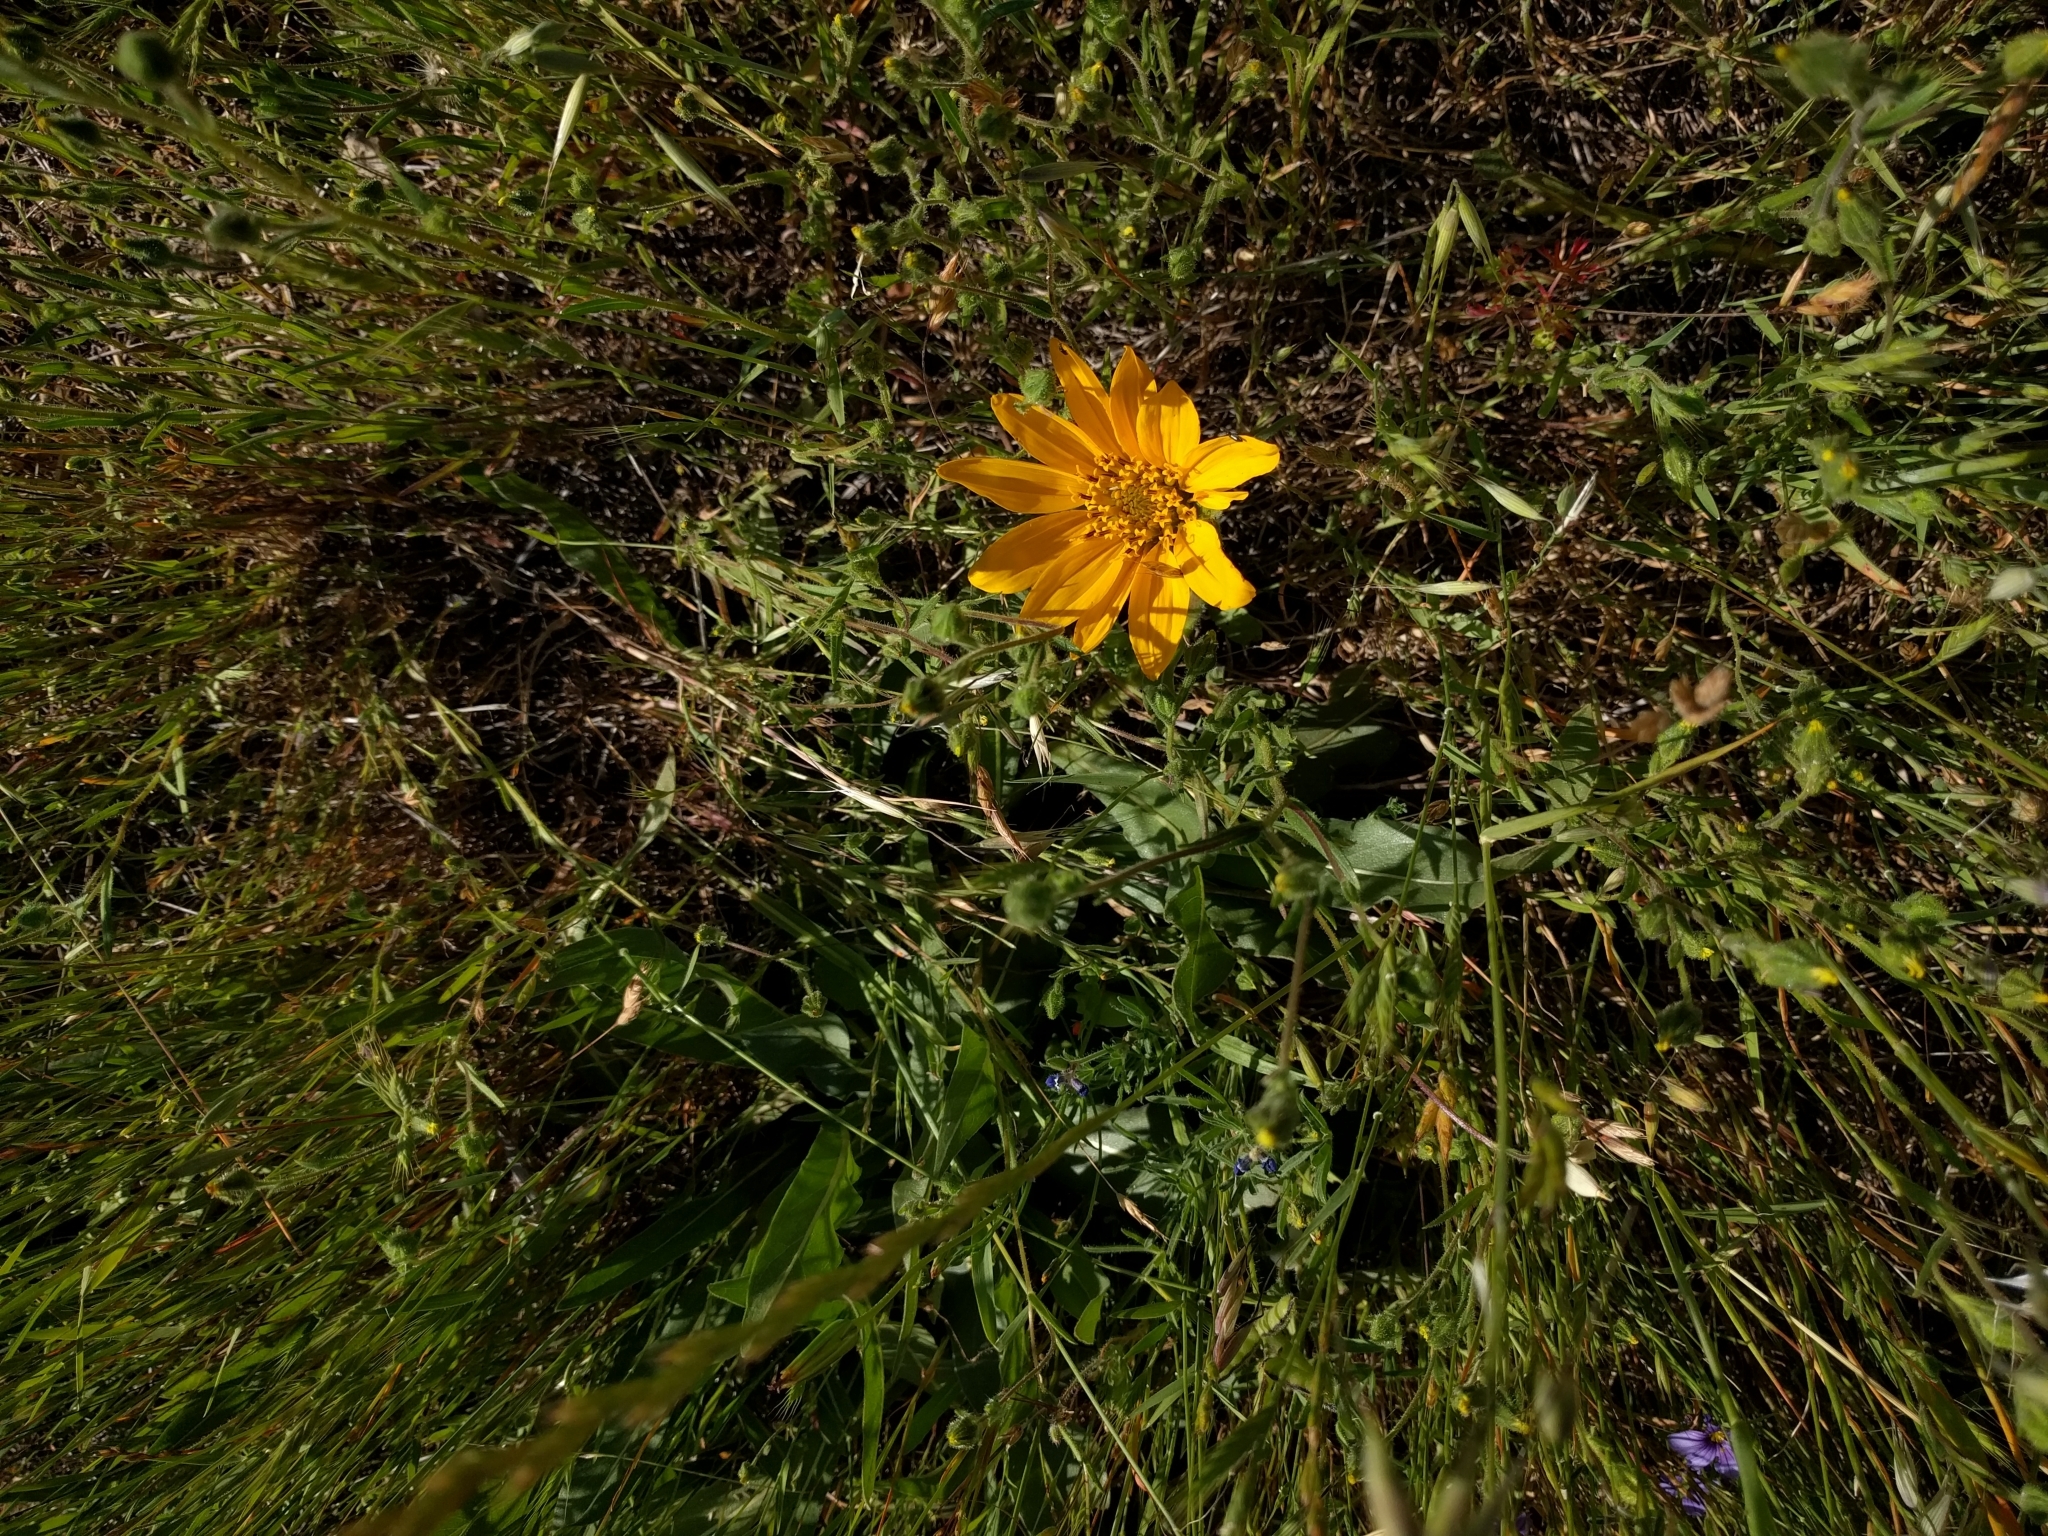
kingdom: Plantae
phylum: Tracheophyta
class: Magnoliopsida
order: Asterales
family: Asteraceae
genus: Wyethia
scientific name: Wyethia angustifolia
